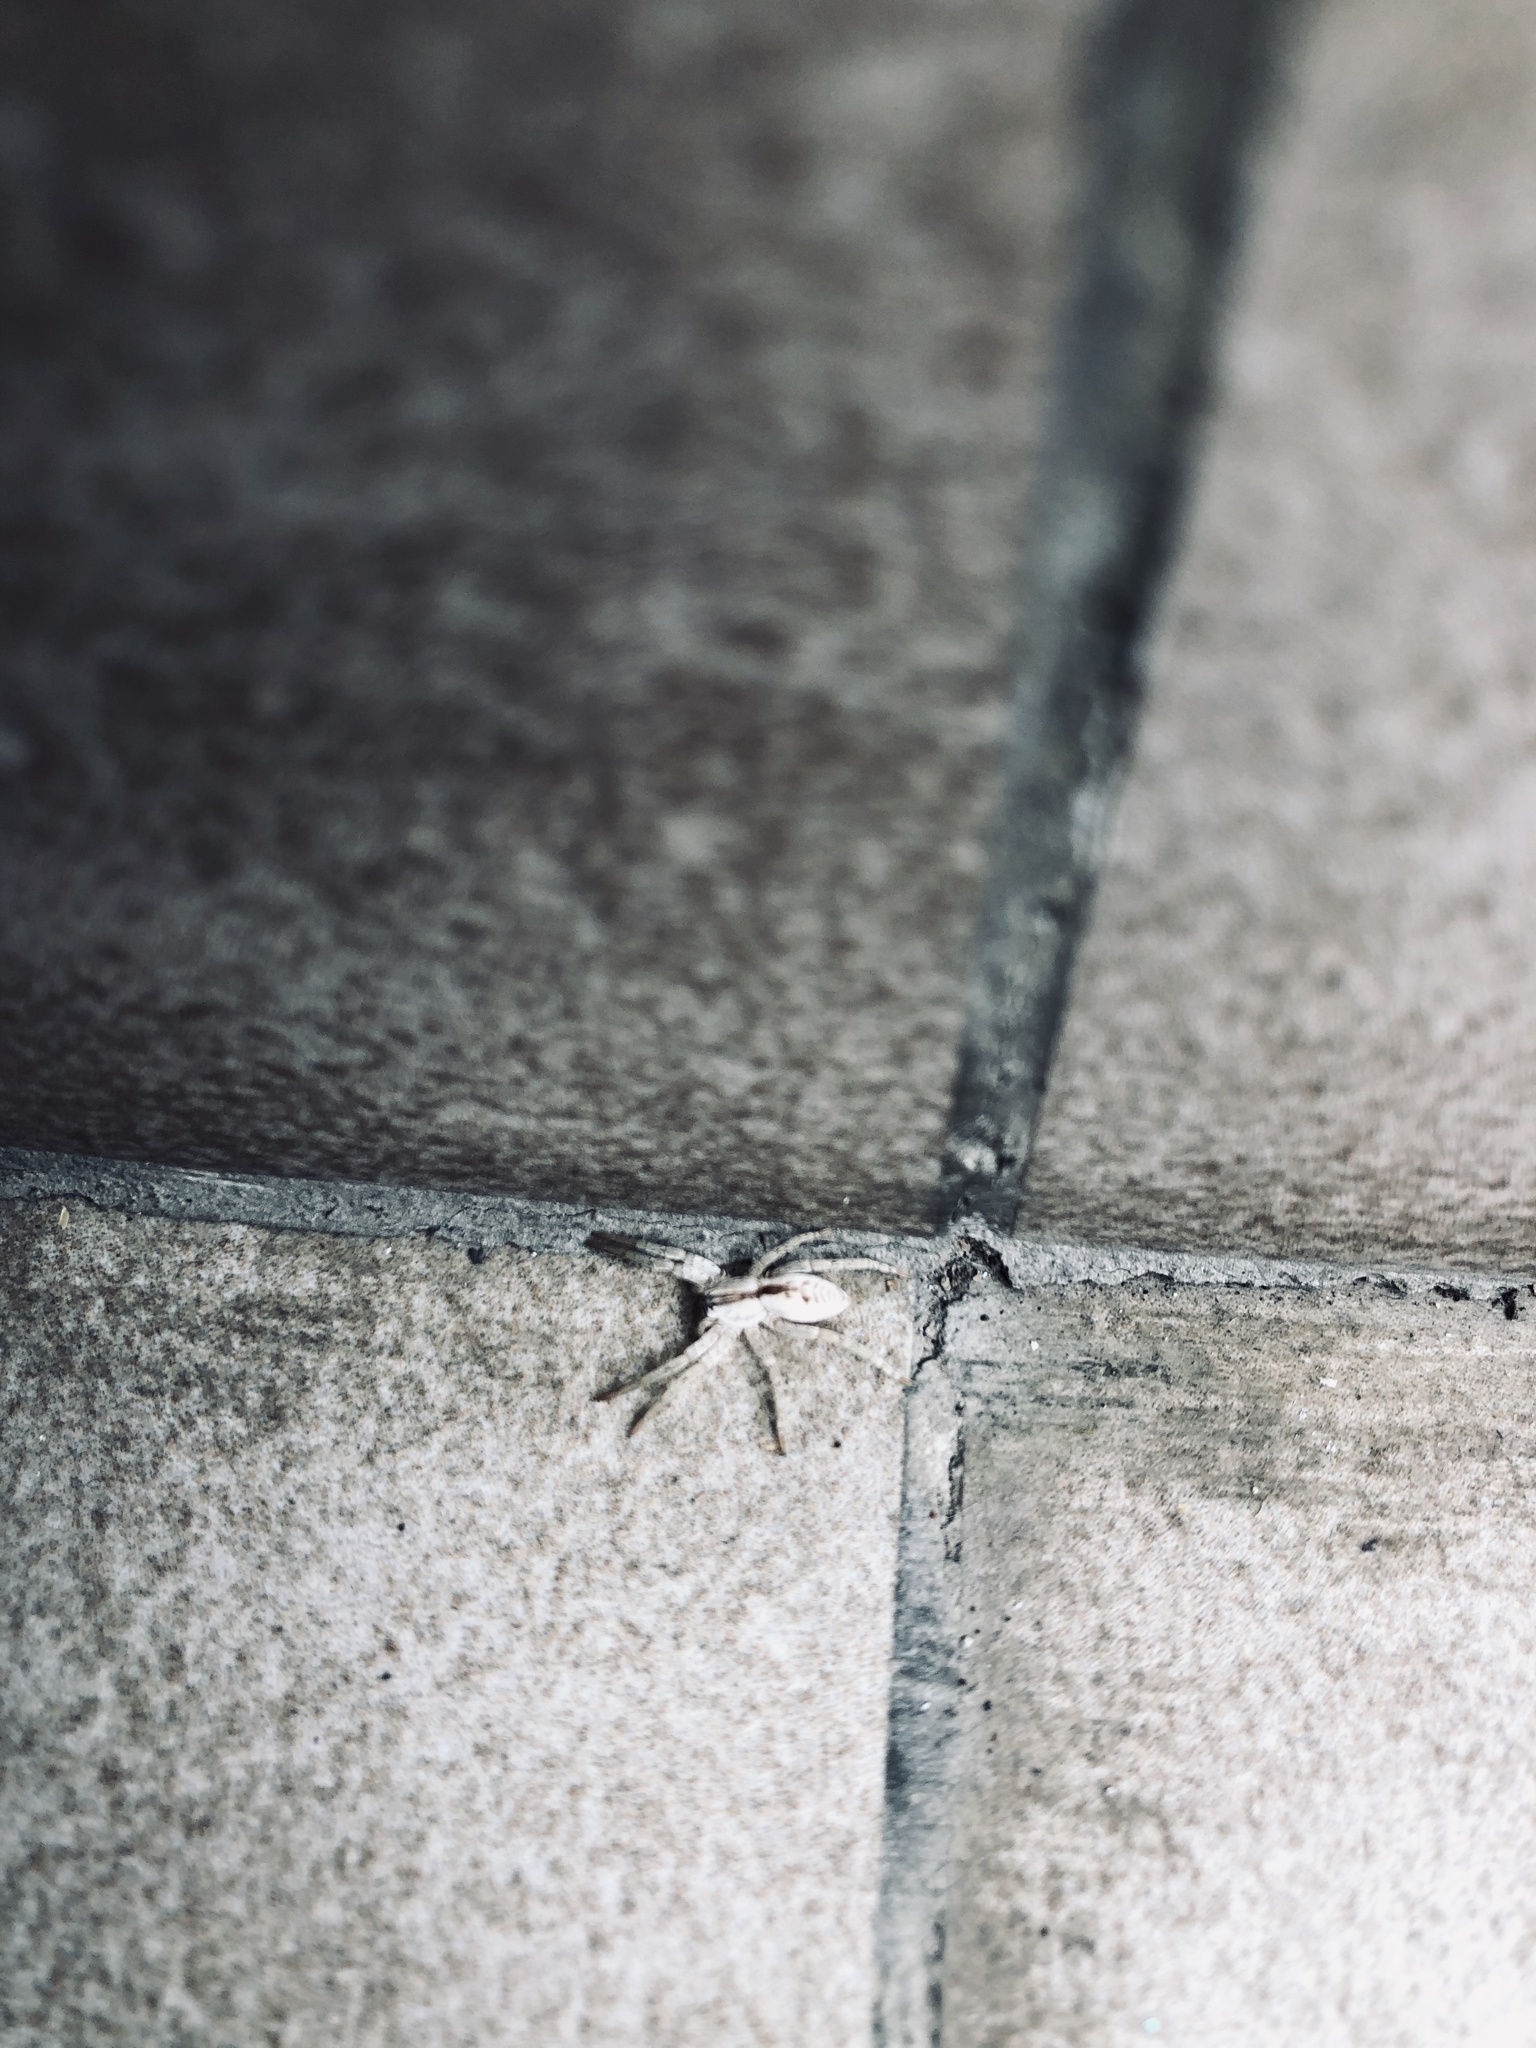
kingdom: Animalia
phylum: Arthropoda
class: Arachnida
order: Araneae
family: Anyphaenidae
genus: Arachosia
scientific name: Arachosia praesignis
